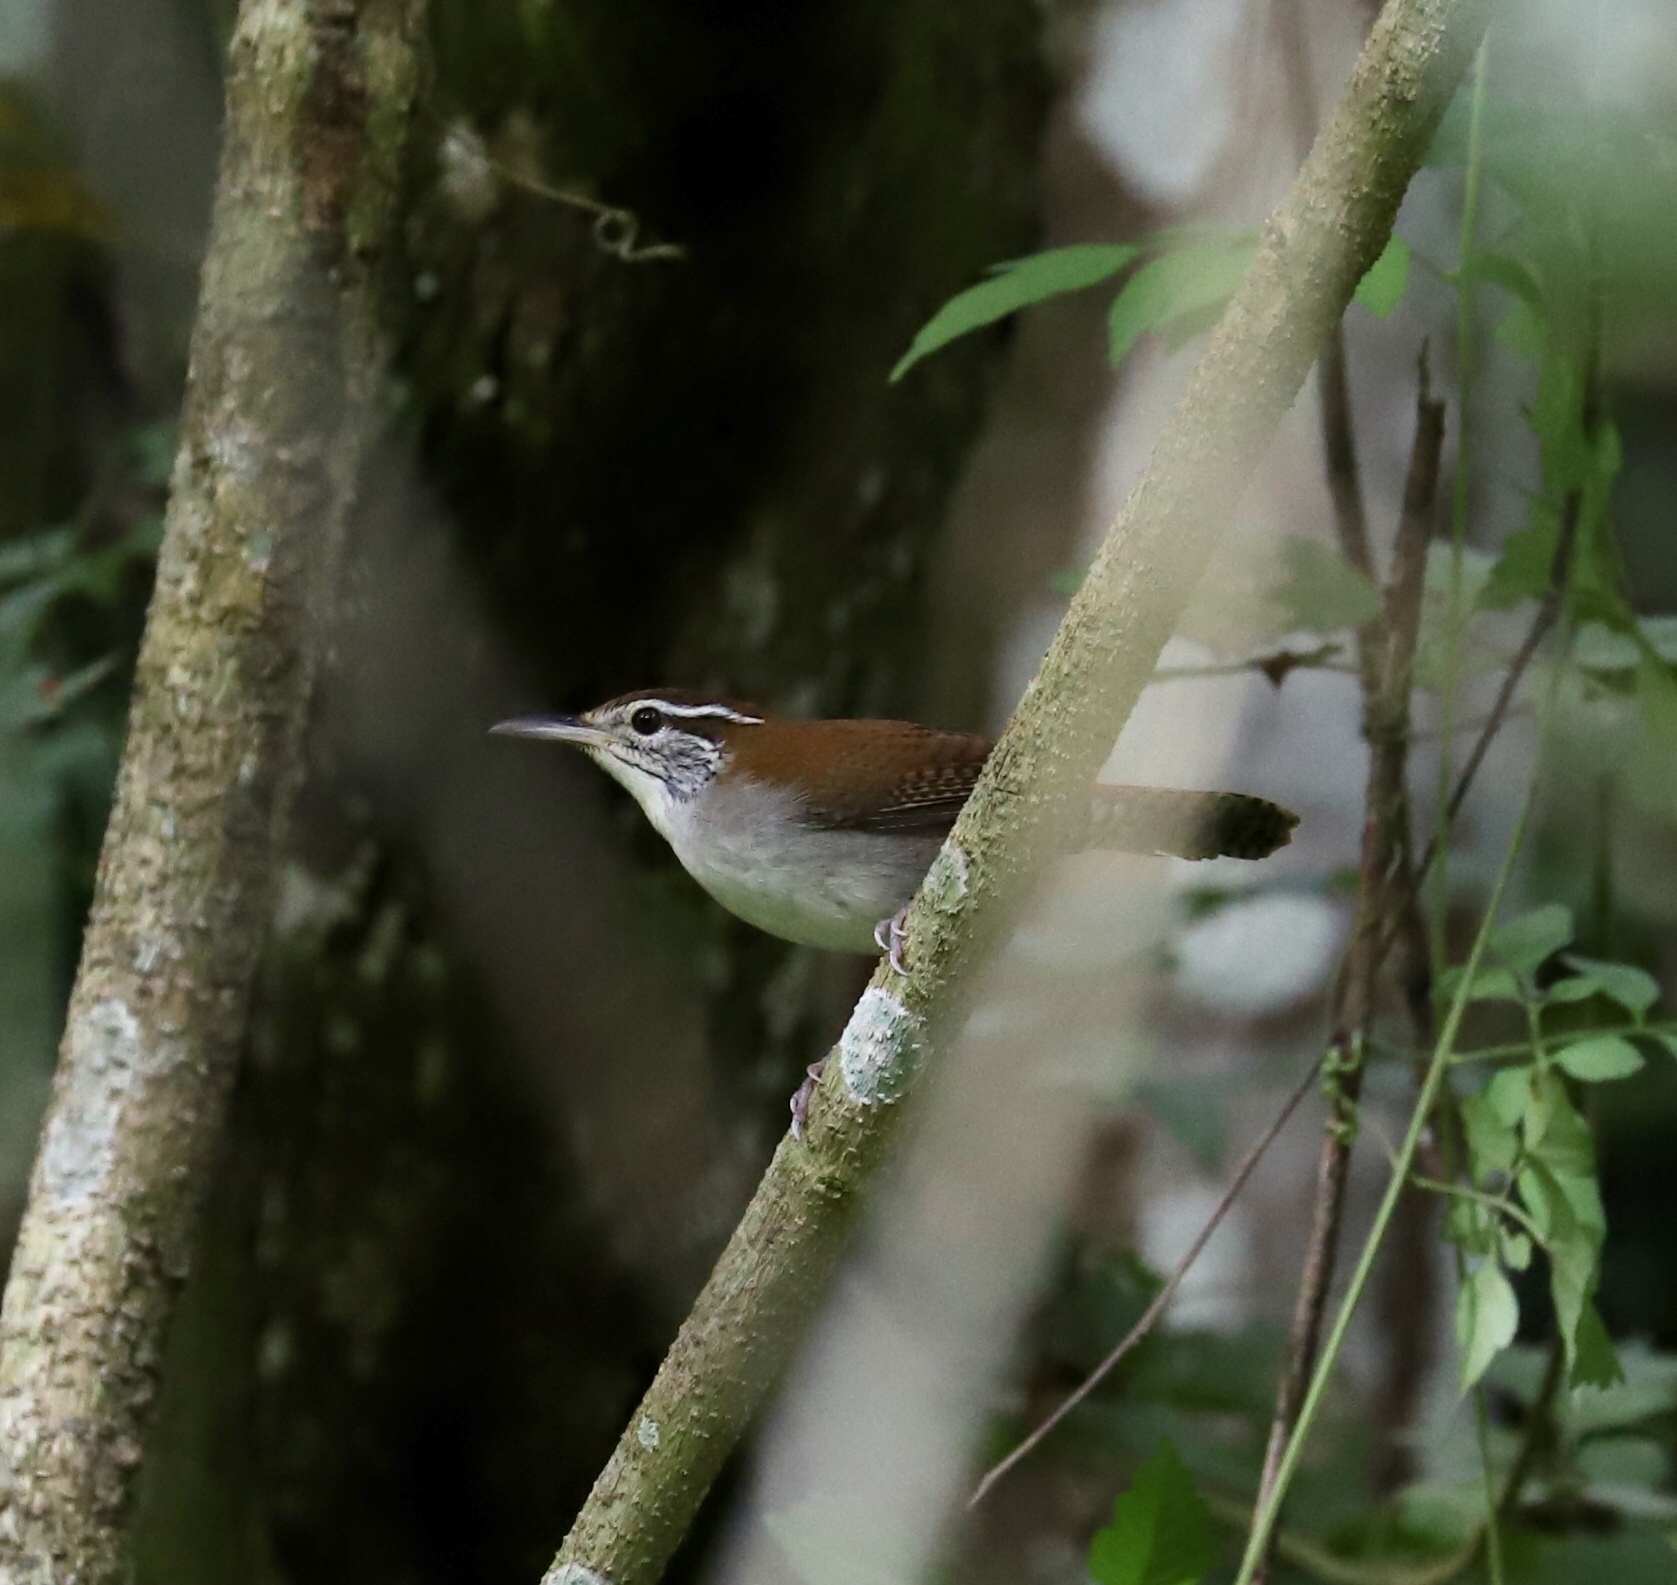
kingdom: Animalia
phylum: Chordata
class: Aves
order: Passeriformes
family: Troglodytidae
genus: Thryophilus
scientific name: Thryophilus rufalbus
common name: Rufous-and-white wren
